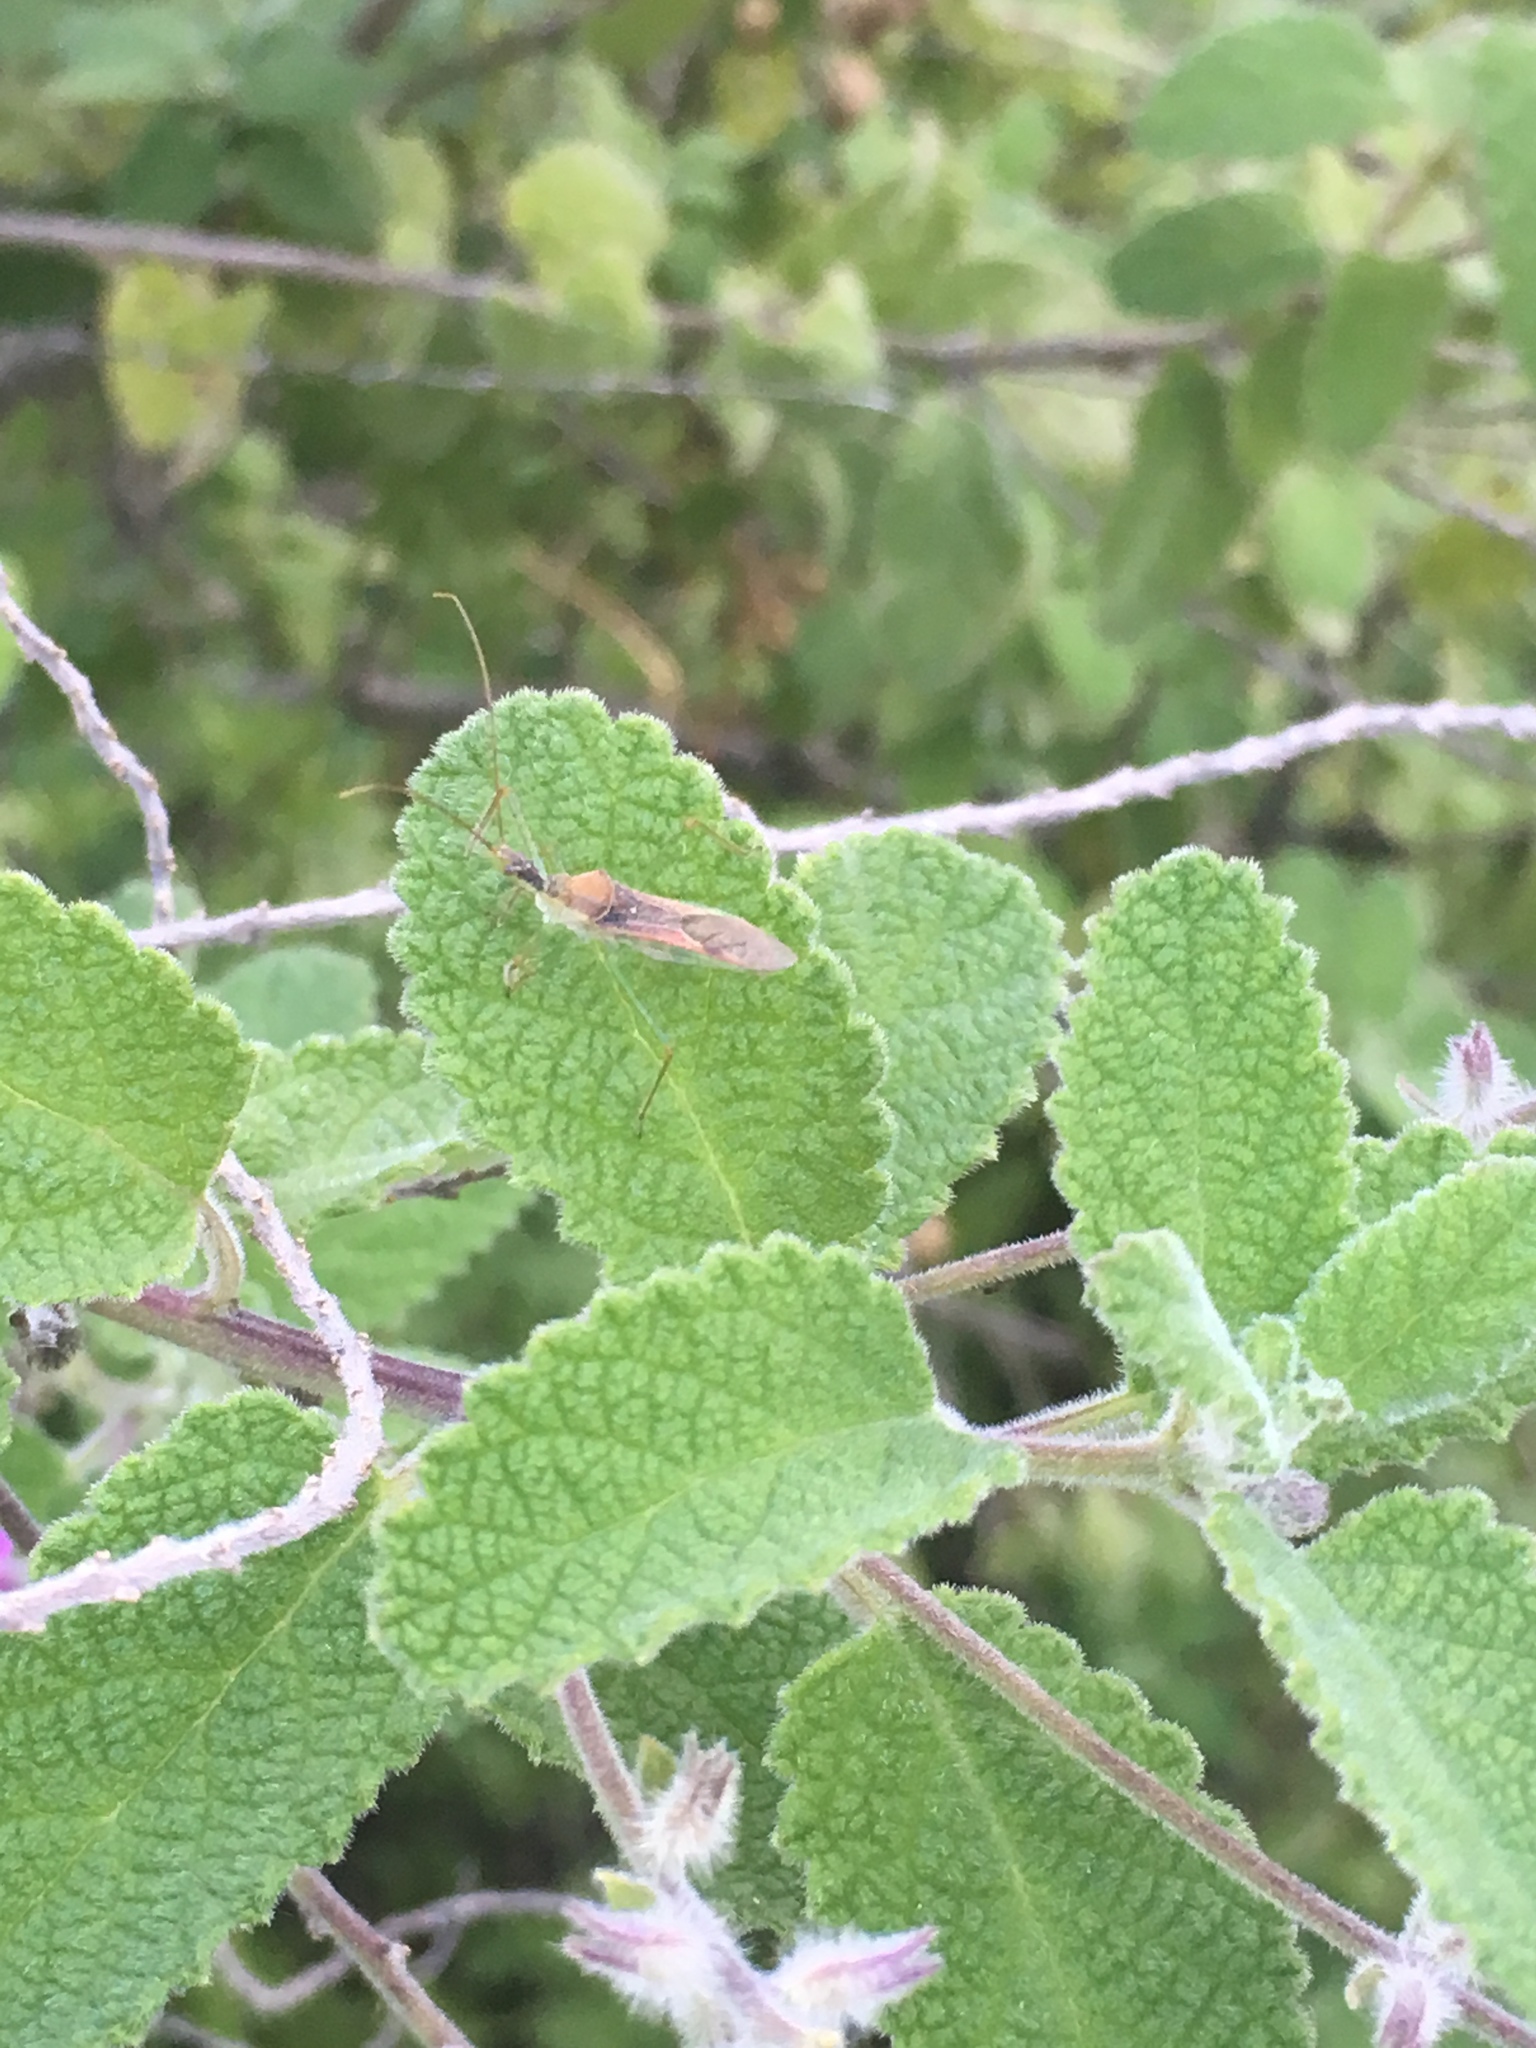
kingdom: Animalia
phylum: Arthropoda
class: Insecta
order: Hemiptera
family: Reduviidae
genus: Zelus
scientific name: Zelus renardii
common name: Assassin bug
